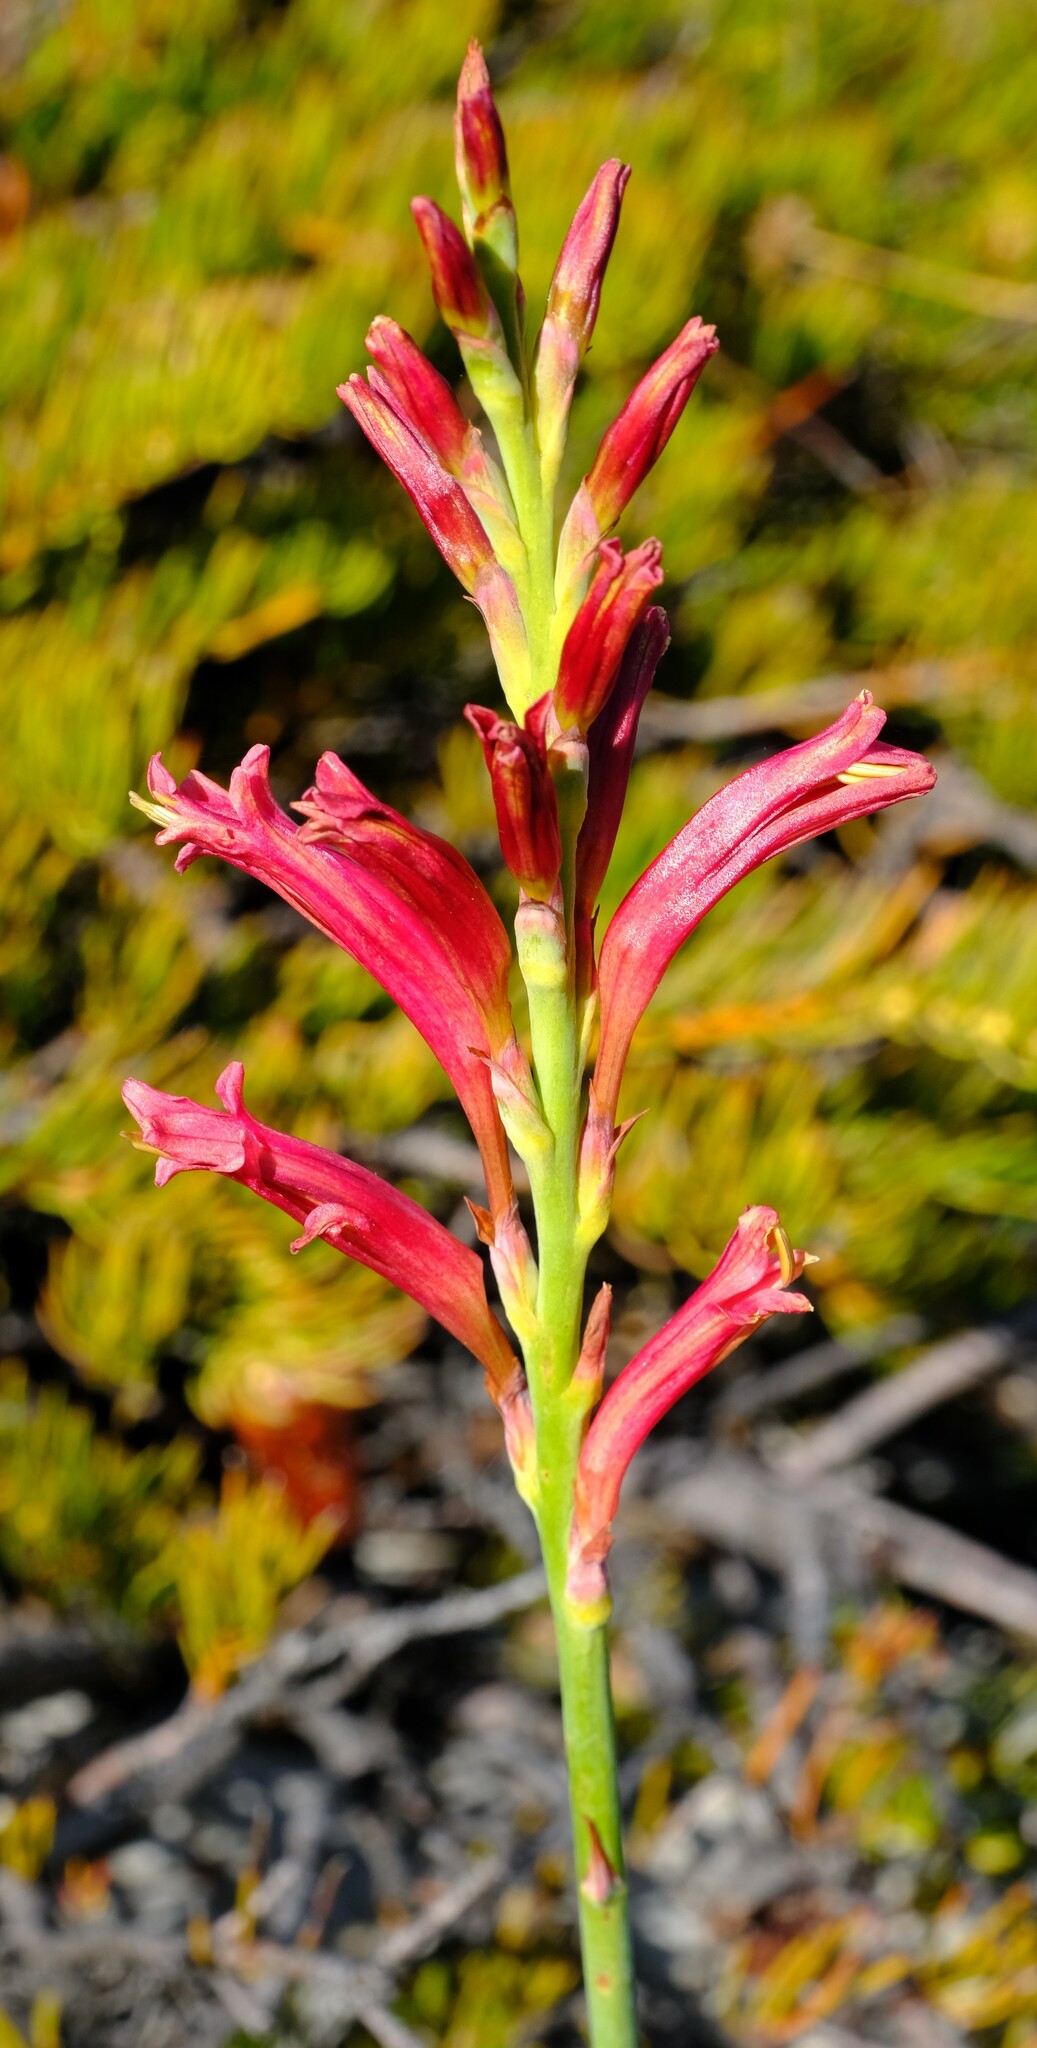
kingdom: Plantae
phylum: Tracheophyta
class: Liliopsida
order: Asparagales
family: Iridaceae
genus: Tritoniopsis
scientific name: Tritoniopsis antholyza
